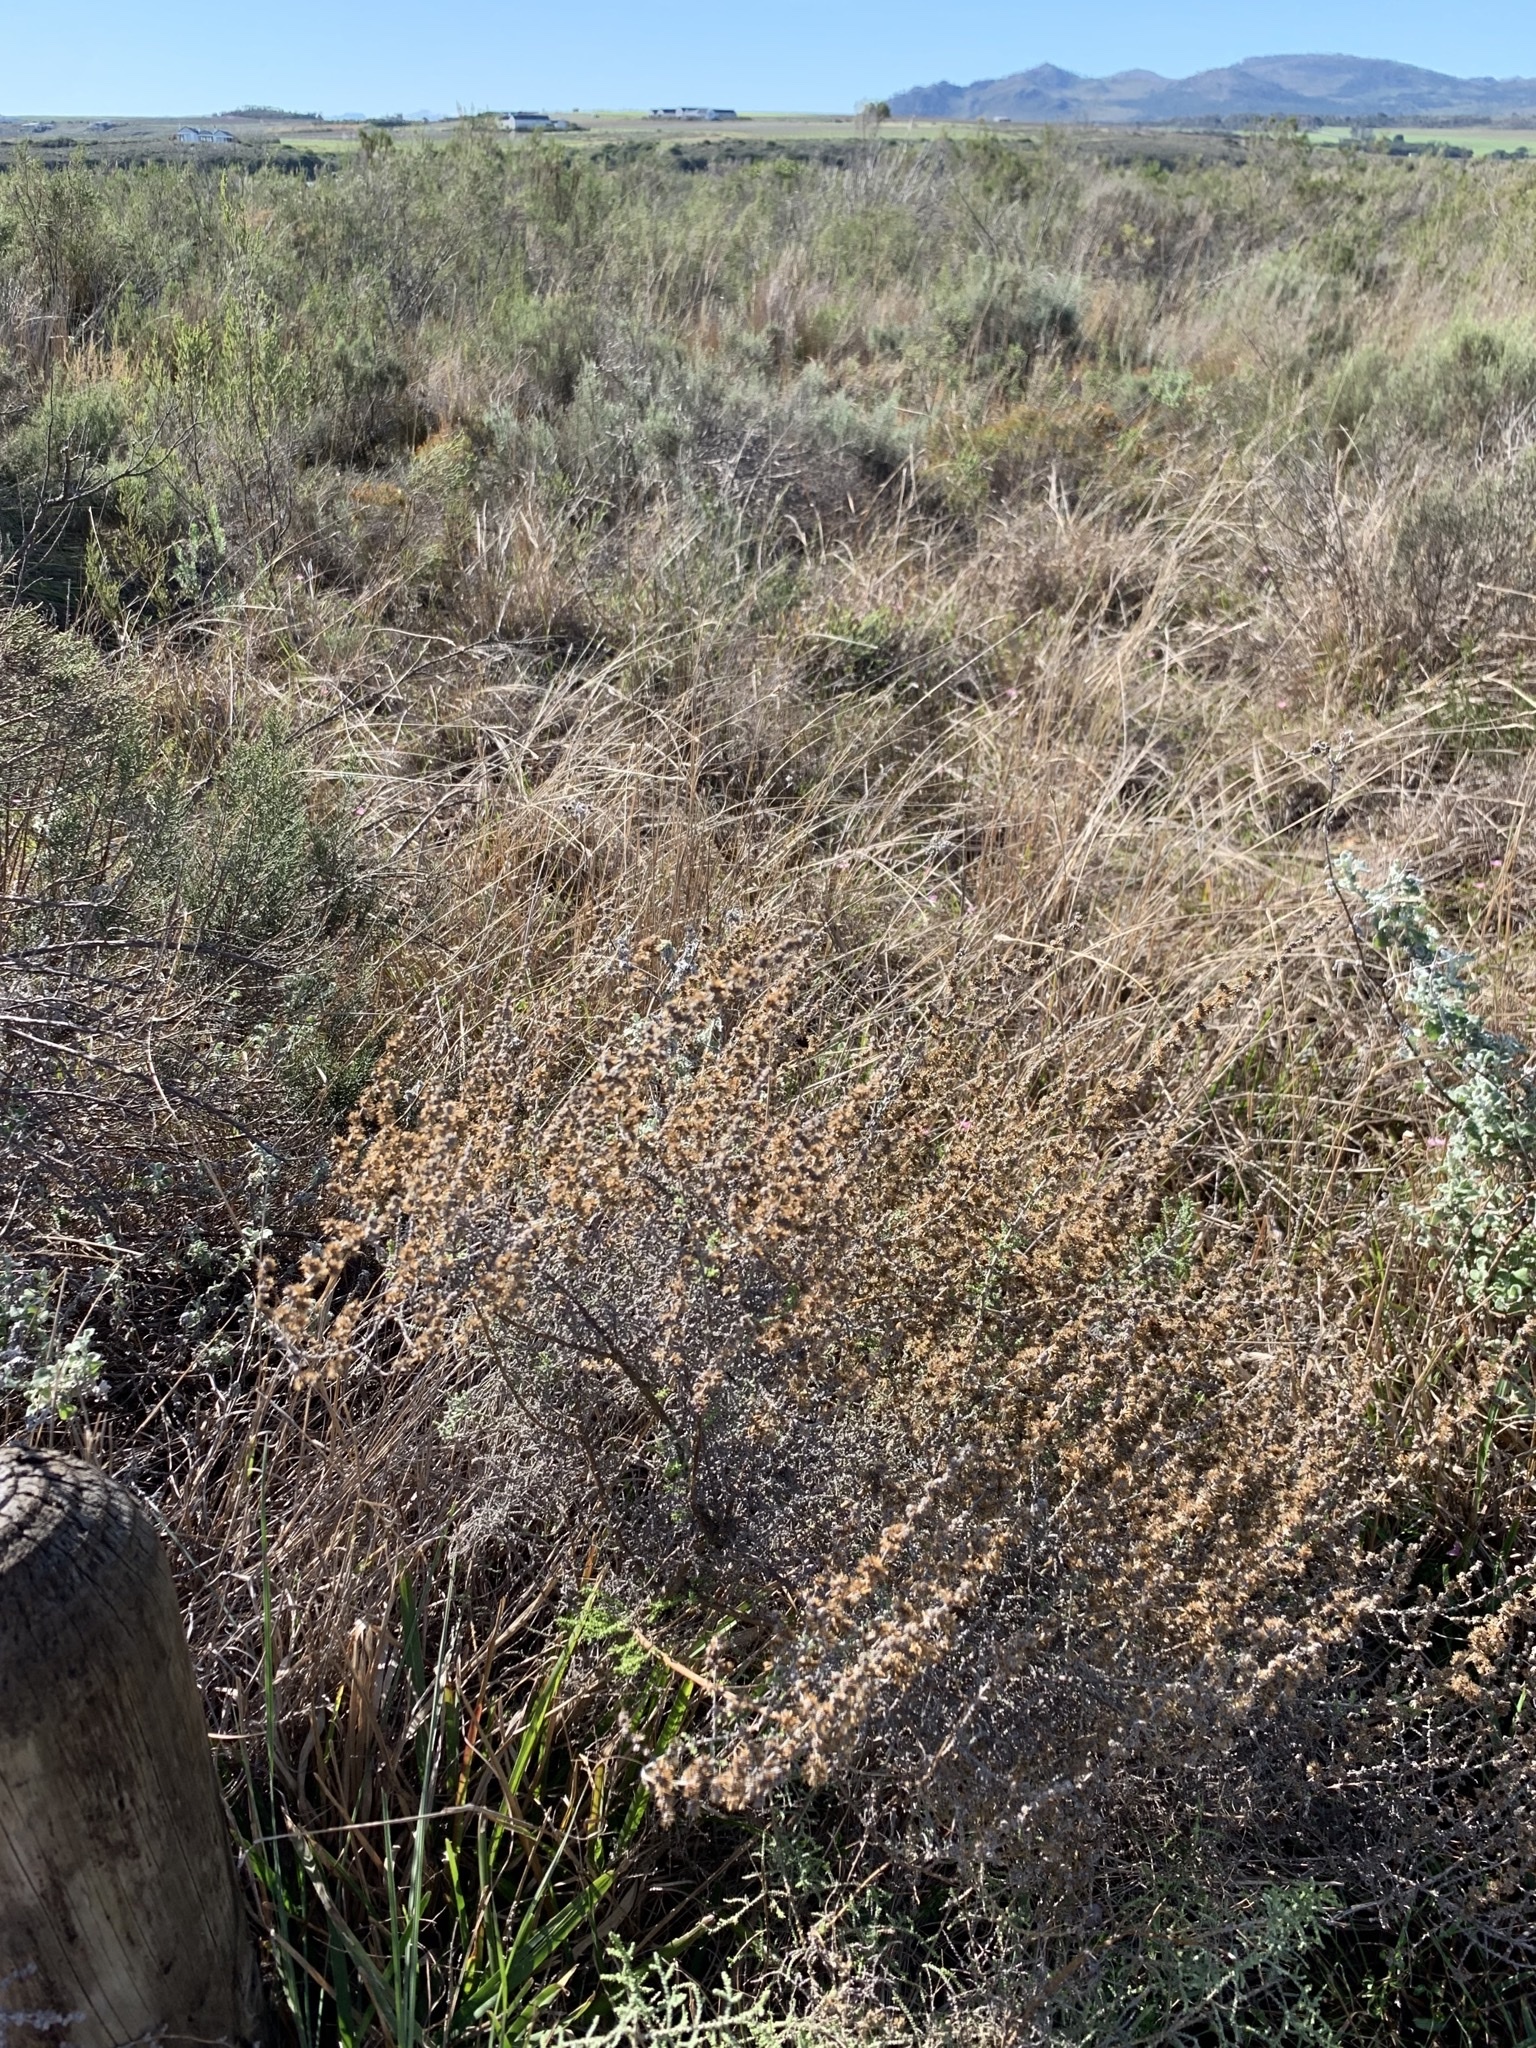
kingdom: Plantae
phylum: Tracheophyta
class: Magnoliopsida
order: Asterales
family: Asteraceae
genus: Seriphium
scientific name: Seriphium plumosum
